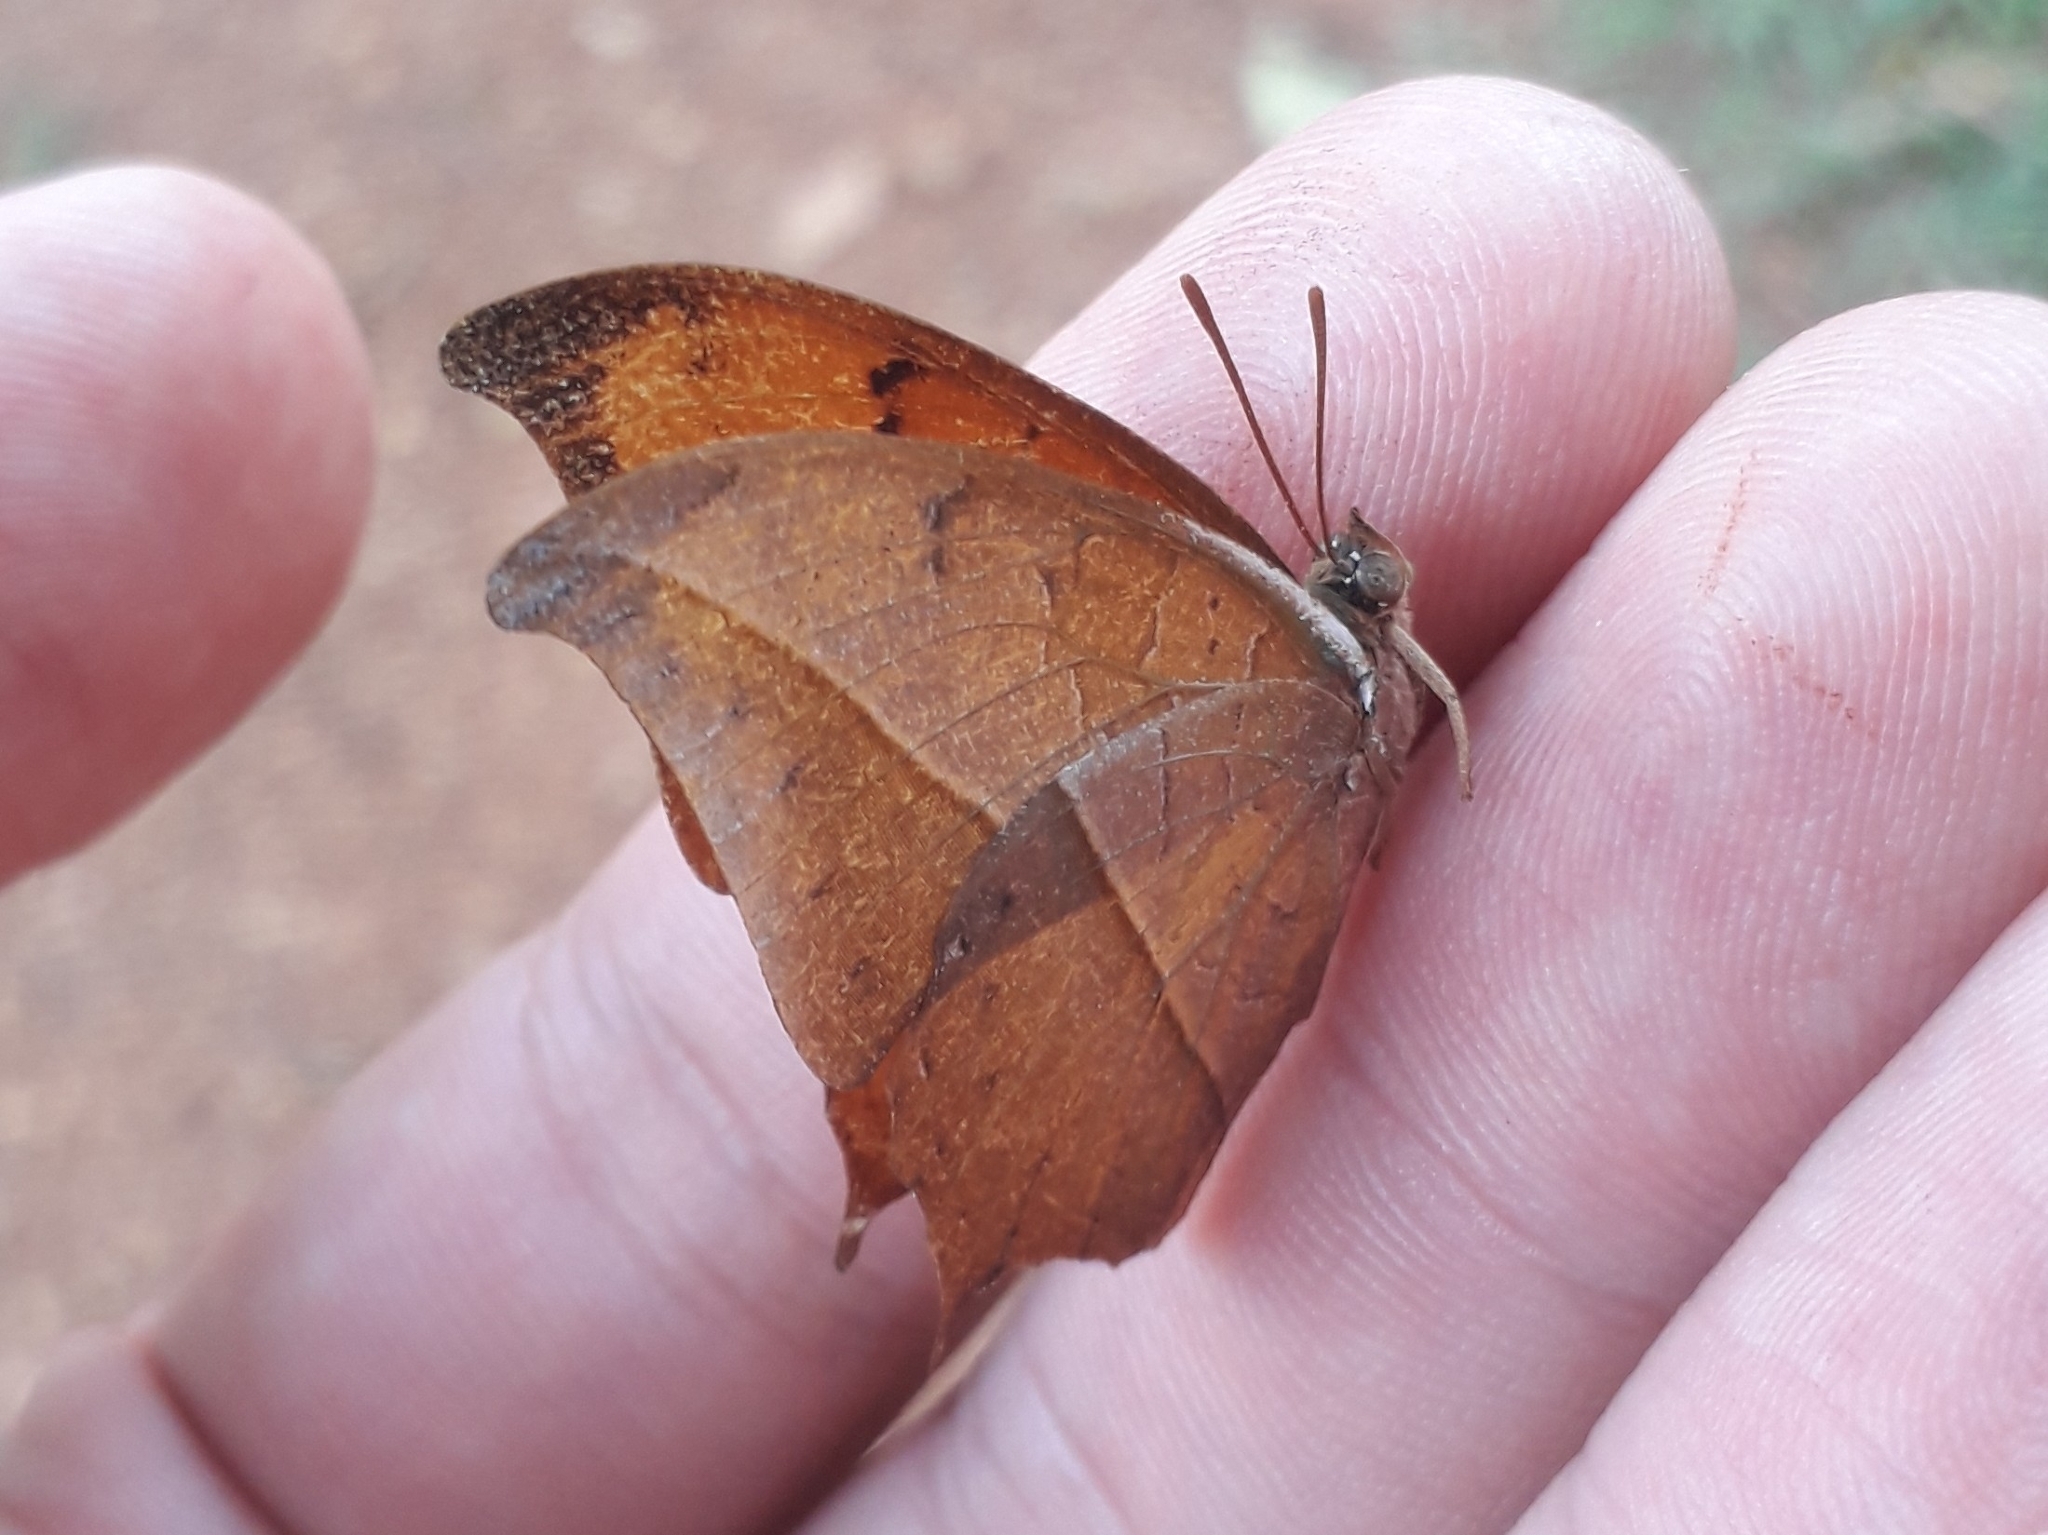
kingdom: Animalia
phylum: Arthropoda
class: Insecta
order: Lepidoptera
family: Nymphalidae
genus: Polyura
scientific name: Polyura
